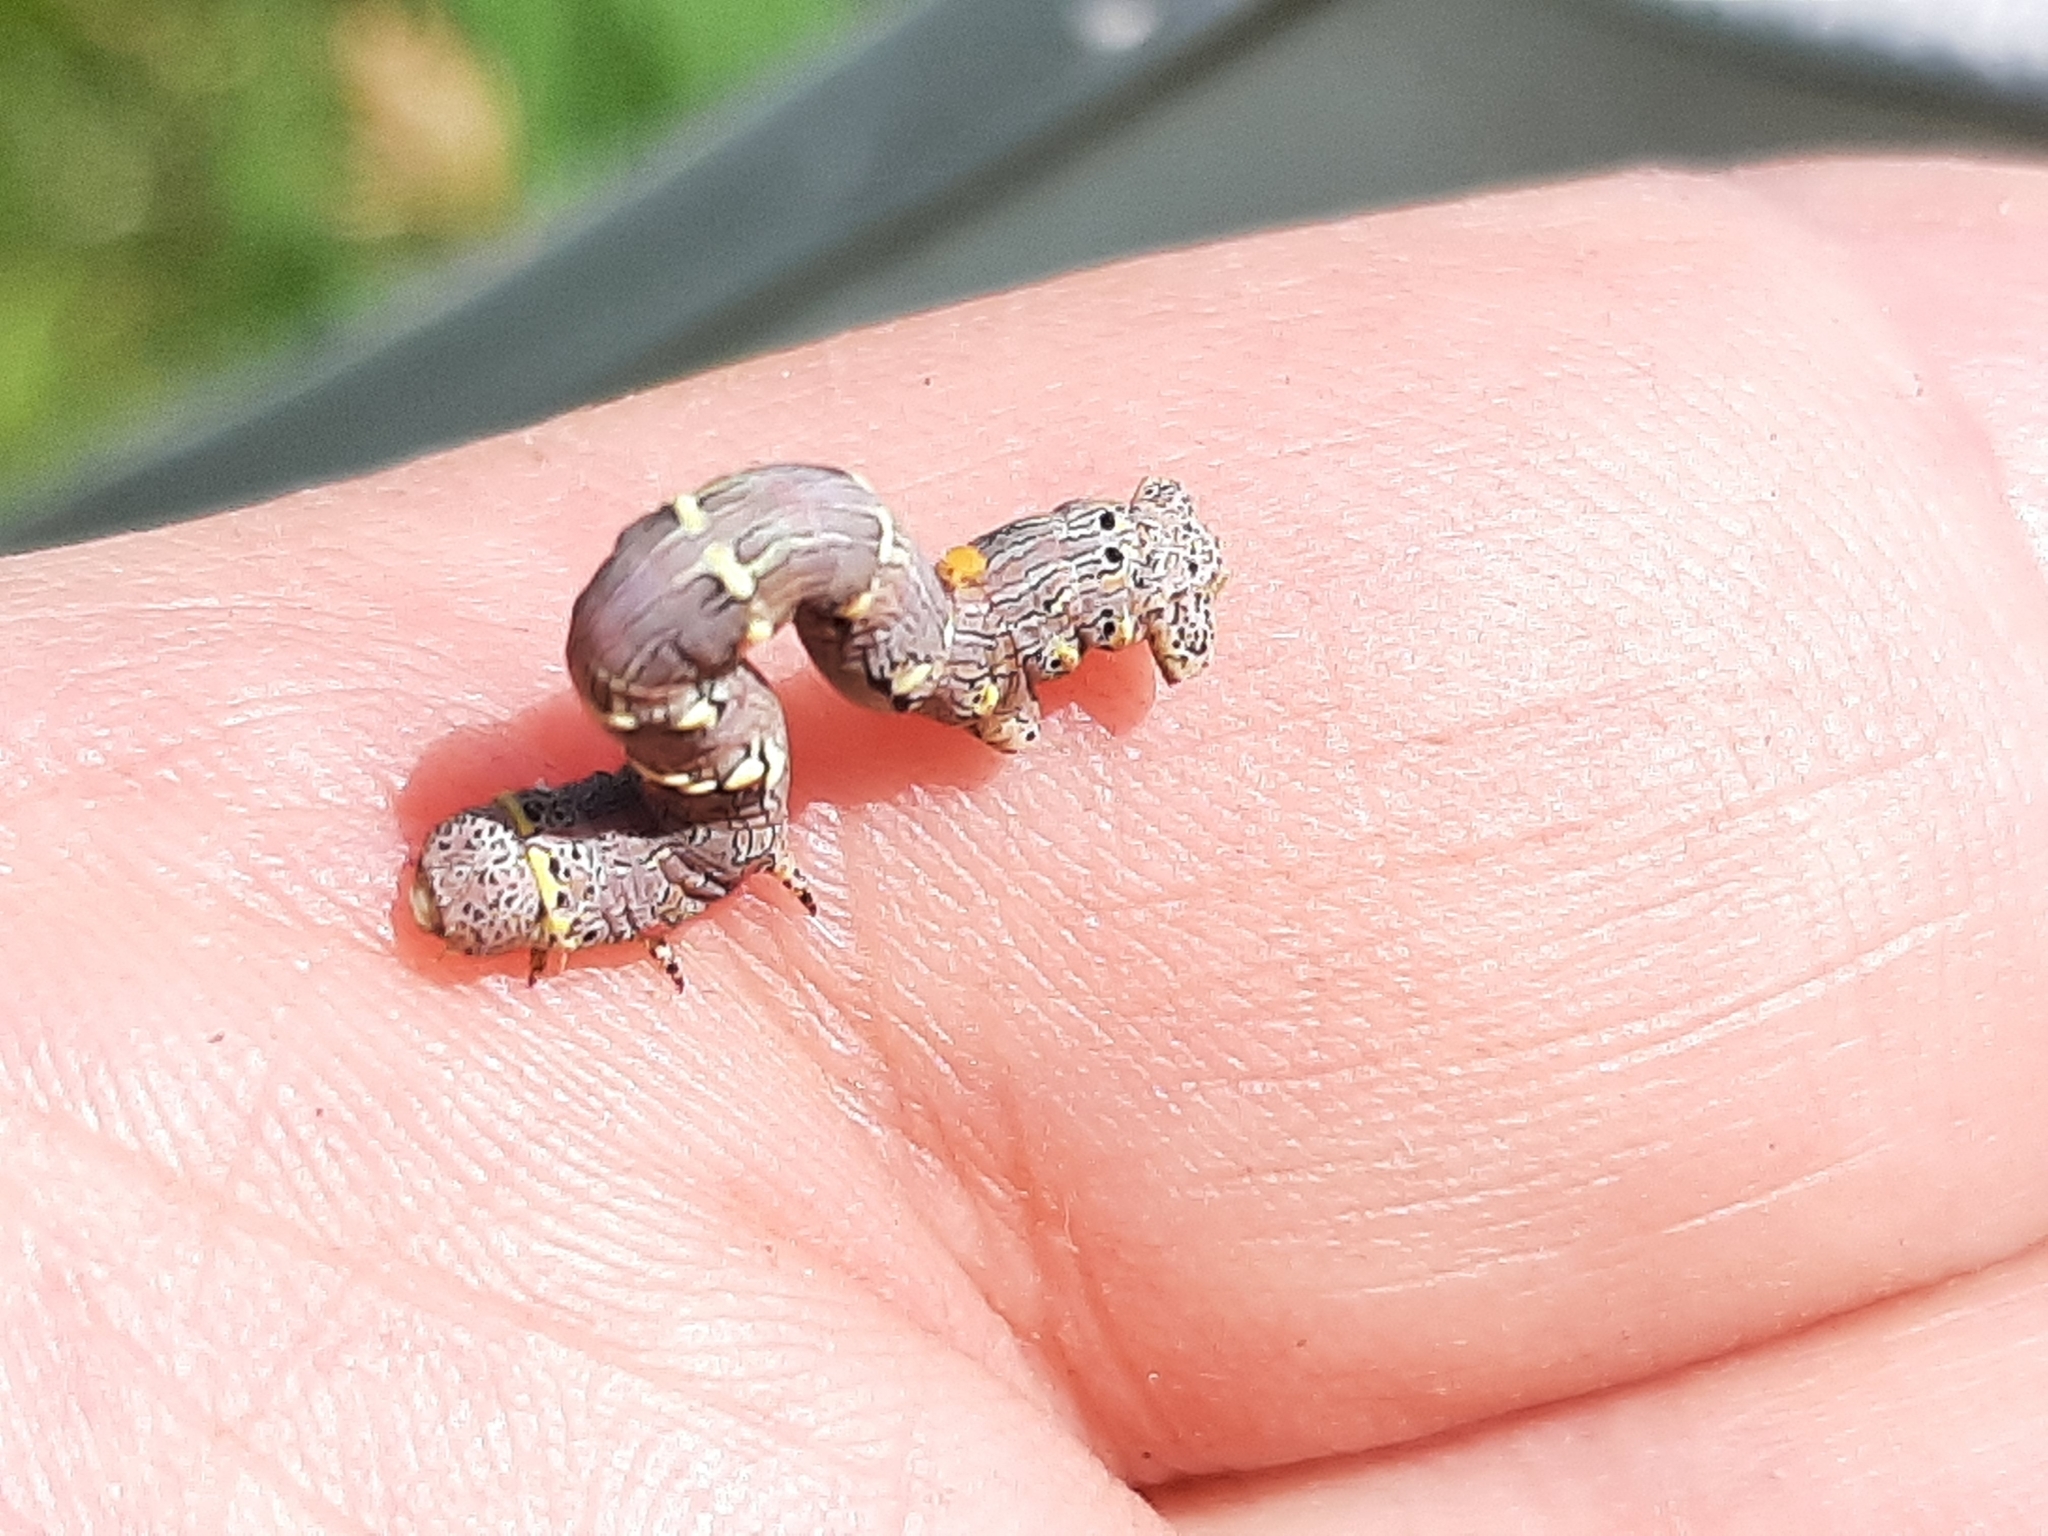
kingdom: Animalia
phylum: Arthropoda
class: Insecta
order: Lepidoptera
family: Geometridae
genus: Lycia
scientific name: Lycia ypsilon
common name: Wooly gray
